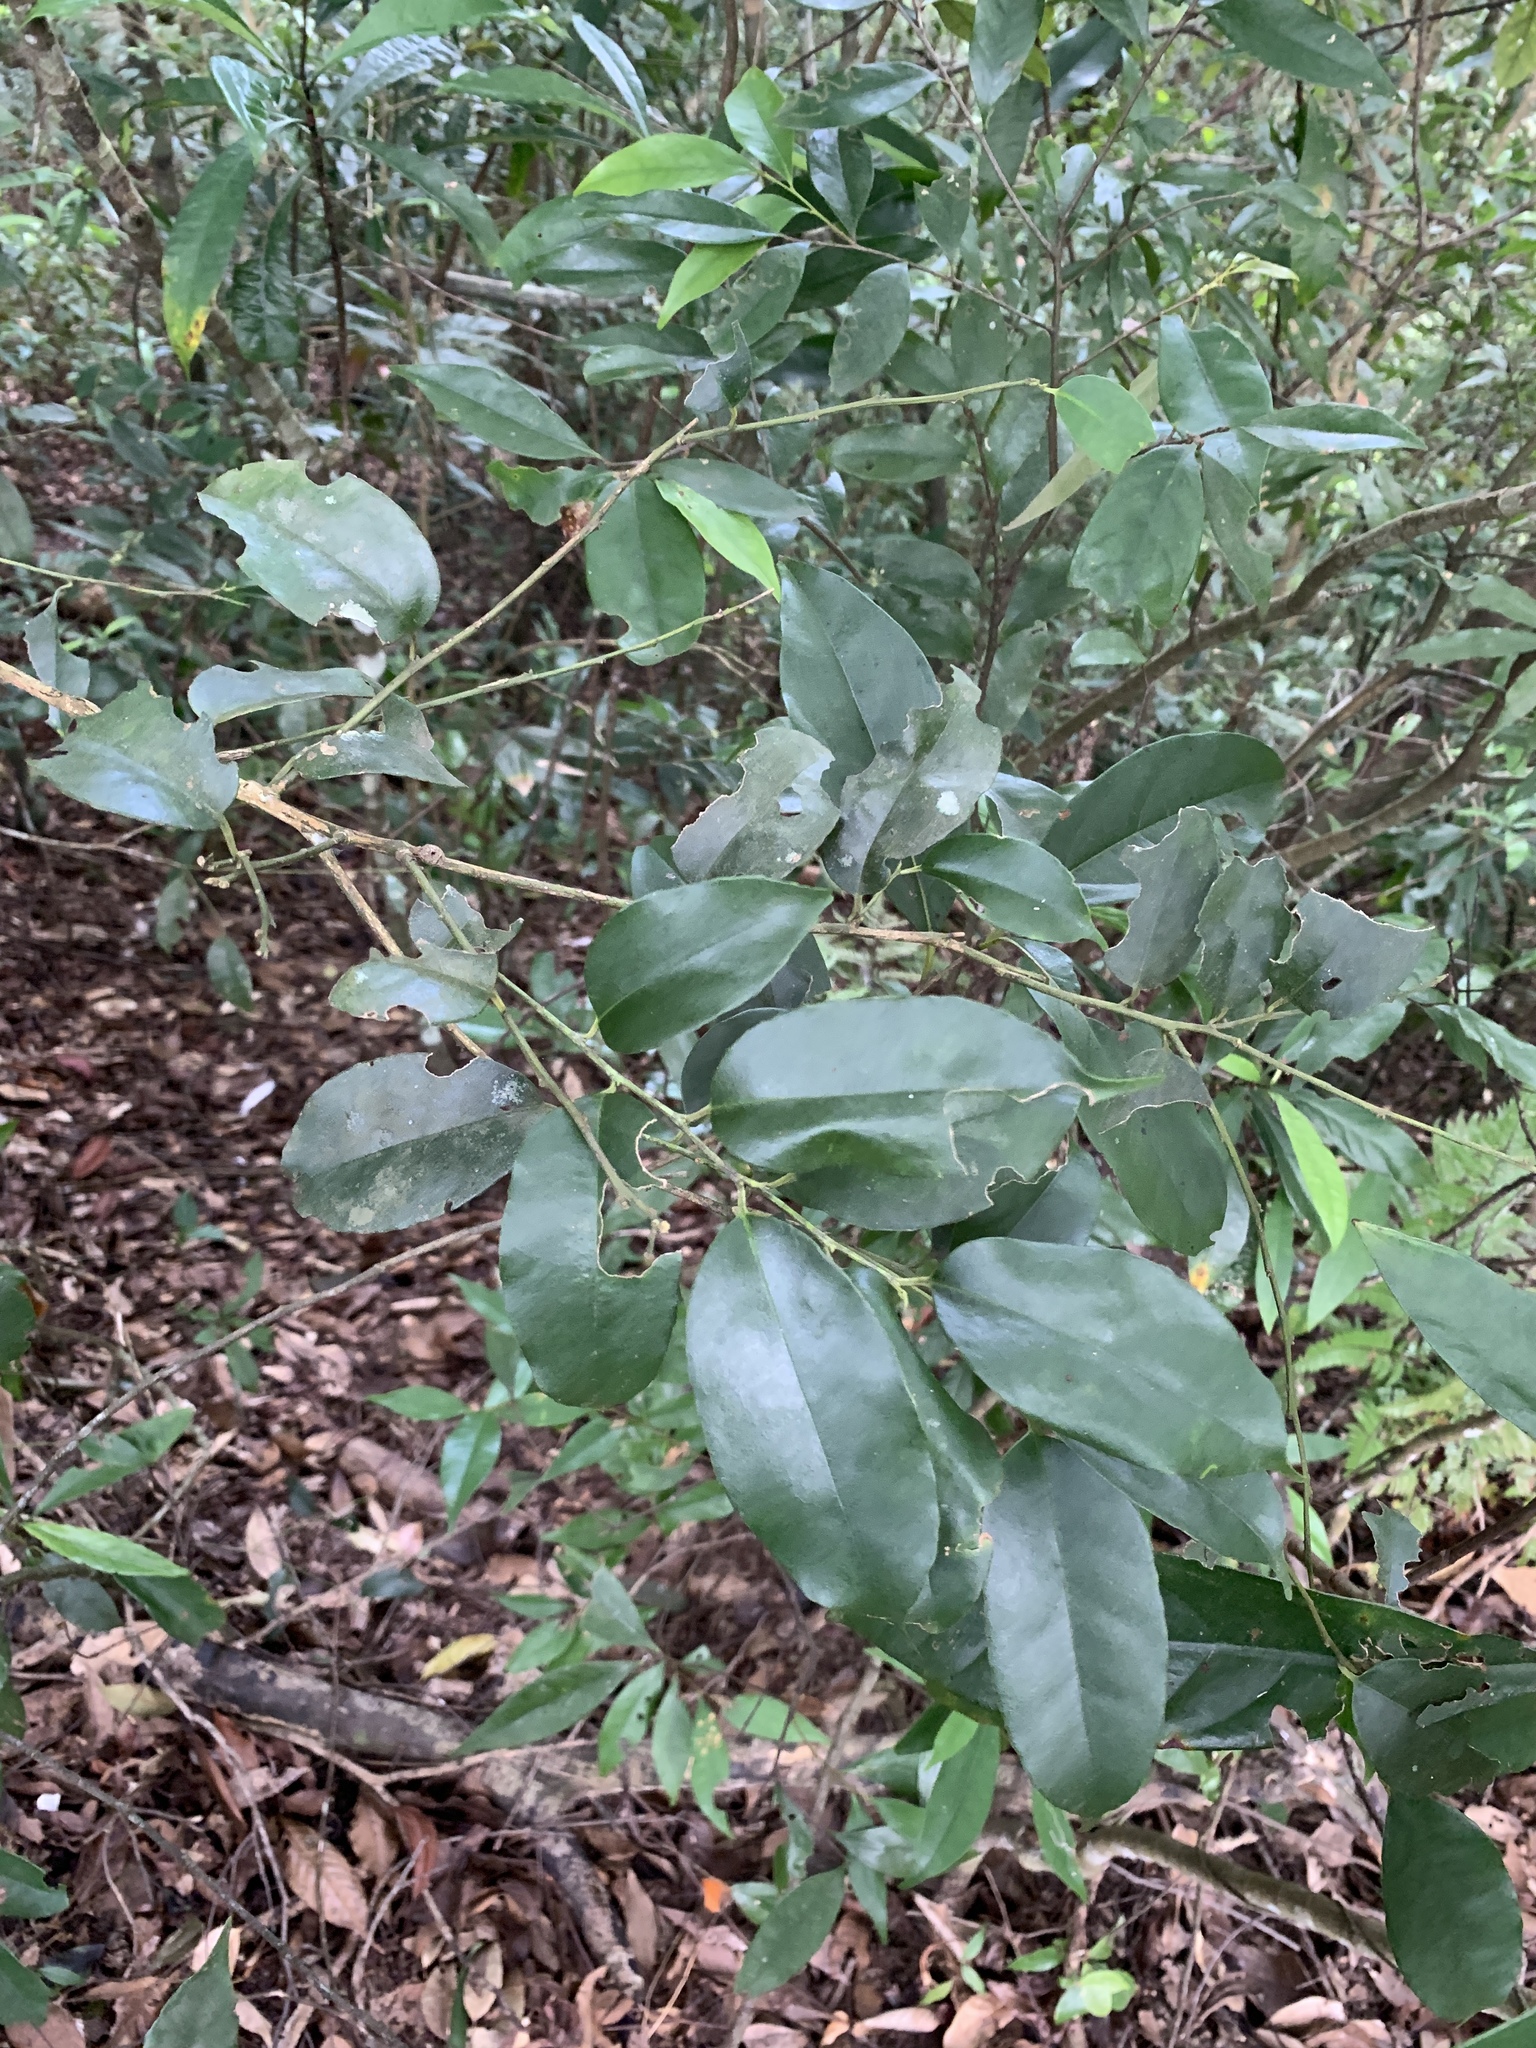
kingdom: Plantae
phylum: Tracheophyta
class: Magnoliopsida
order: Aquifoliales
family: Aquifoliaceae
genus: Ilex
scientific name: Ilex ficoidea
